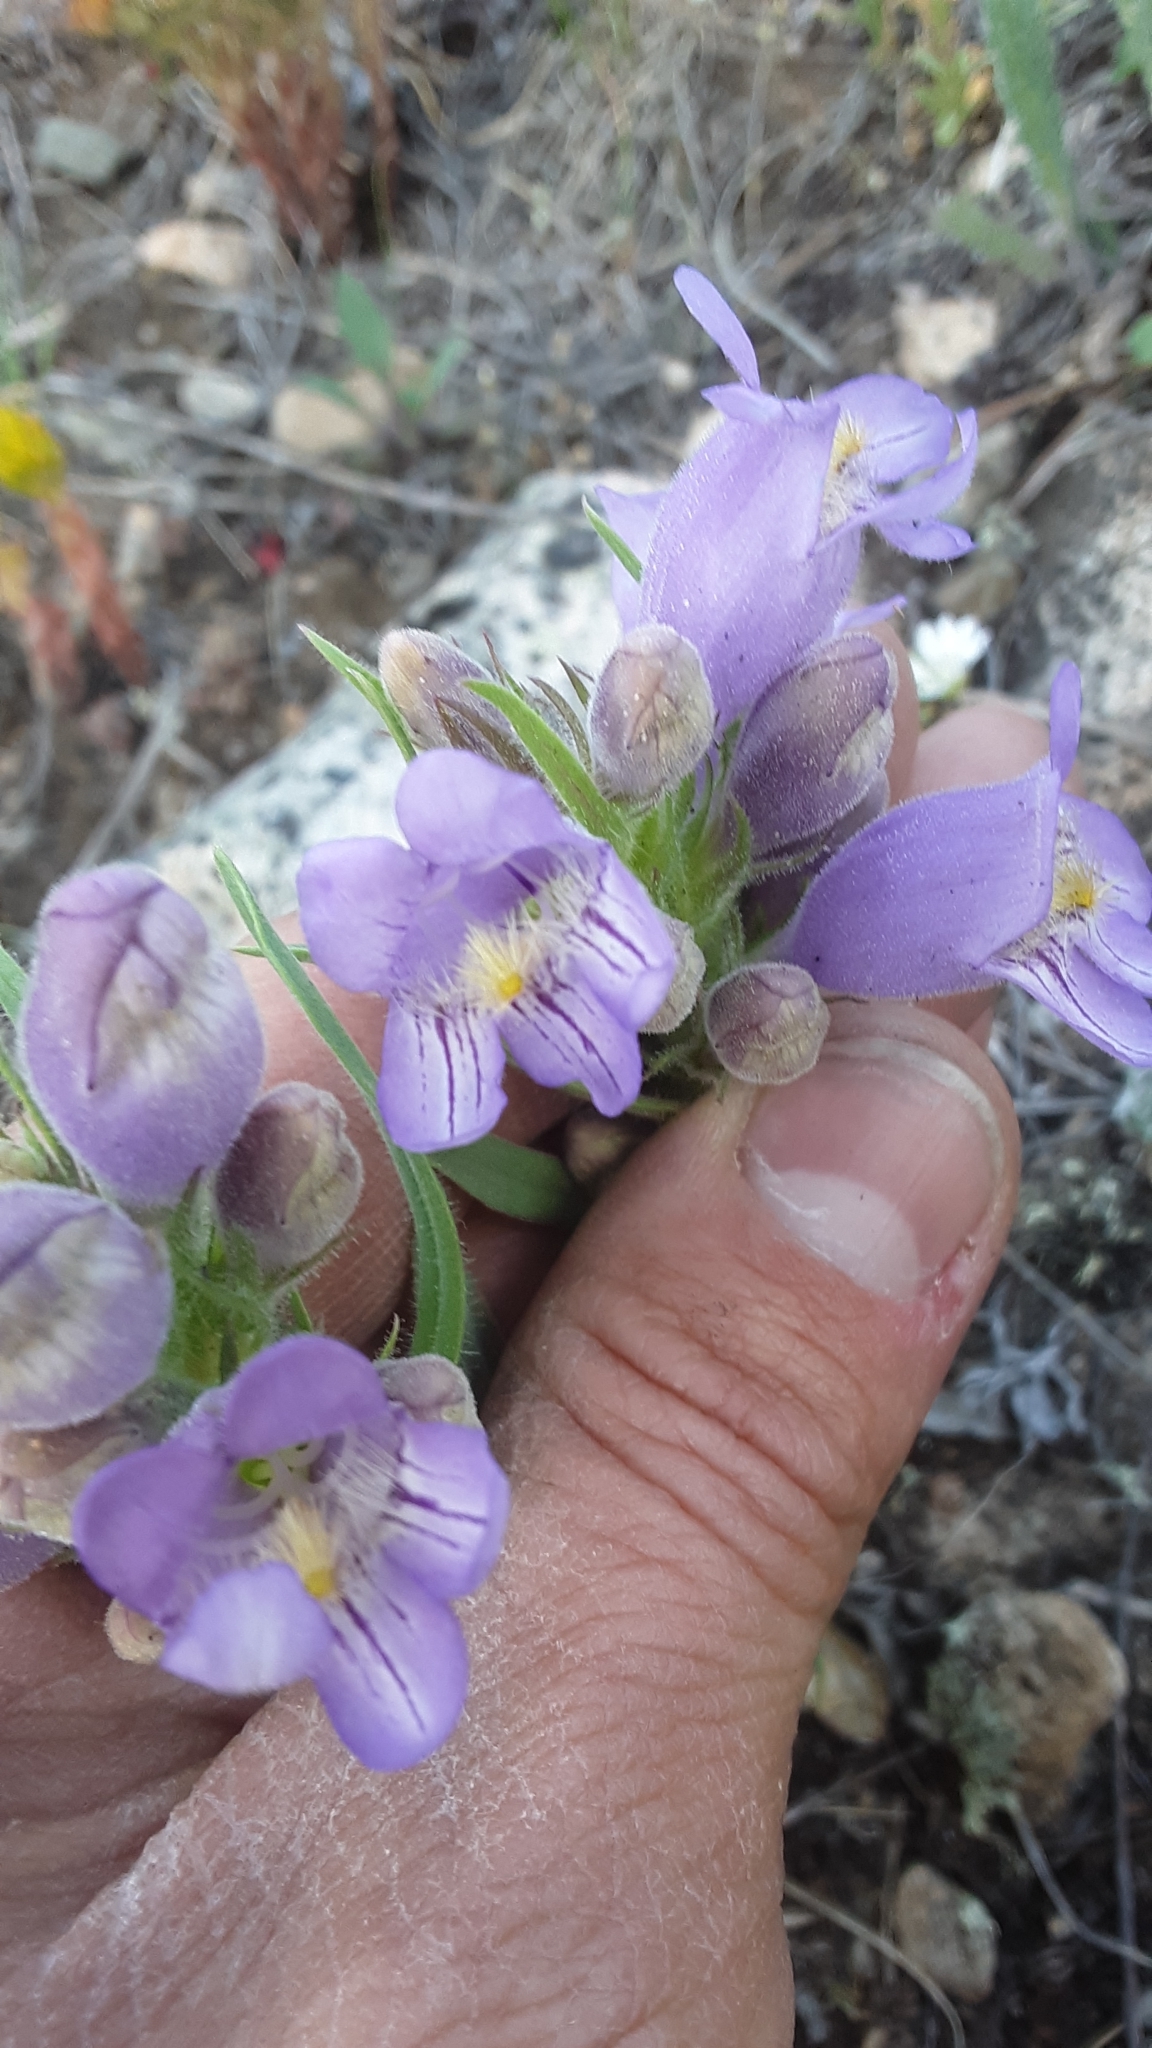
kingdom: Plantae
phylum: Tracheophyta
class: Magnoliopsida
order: Lamiales
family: Plantaginaceae
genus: Penstemon
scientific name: Penstemon eriantherus
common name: Crested beardtongue
